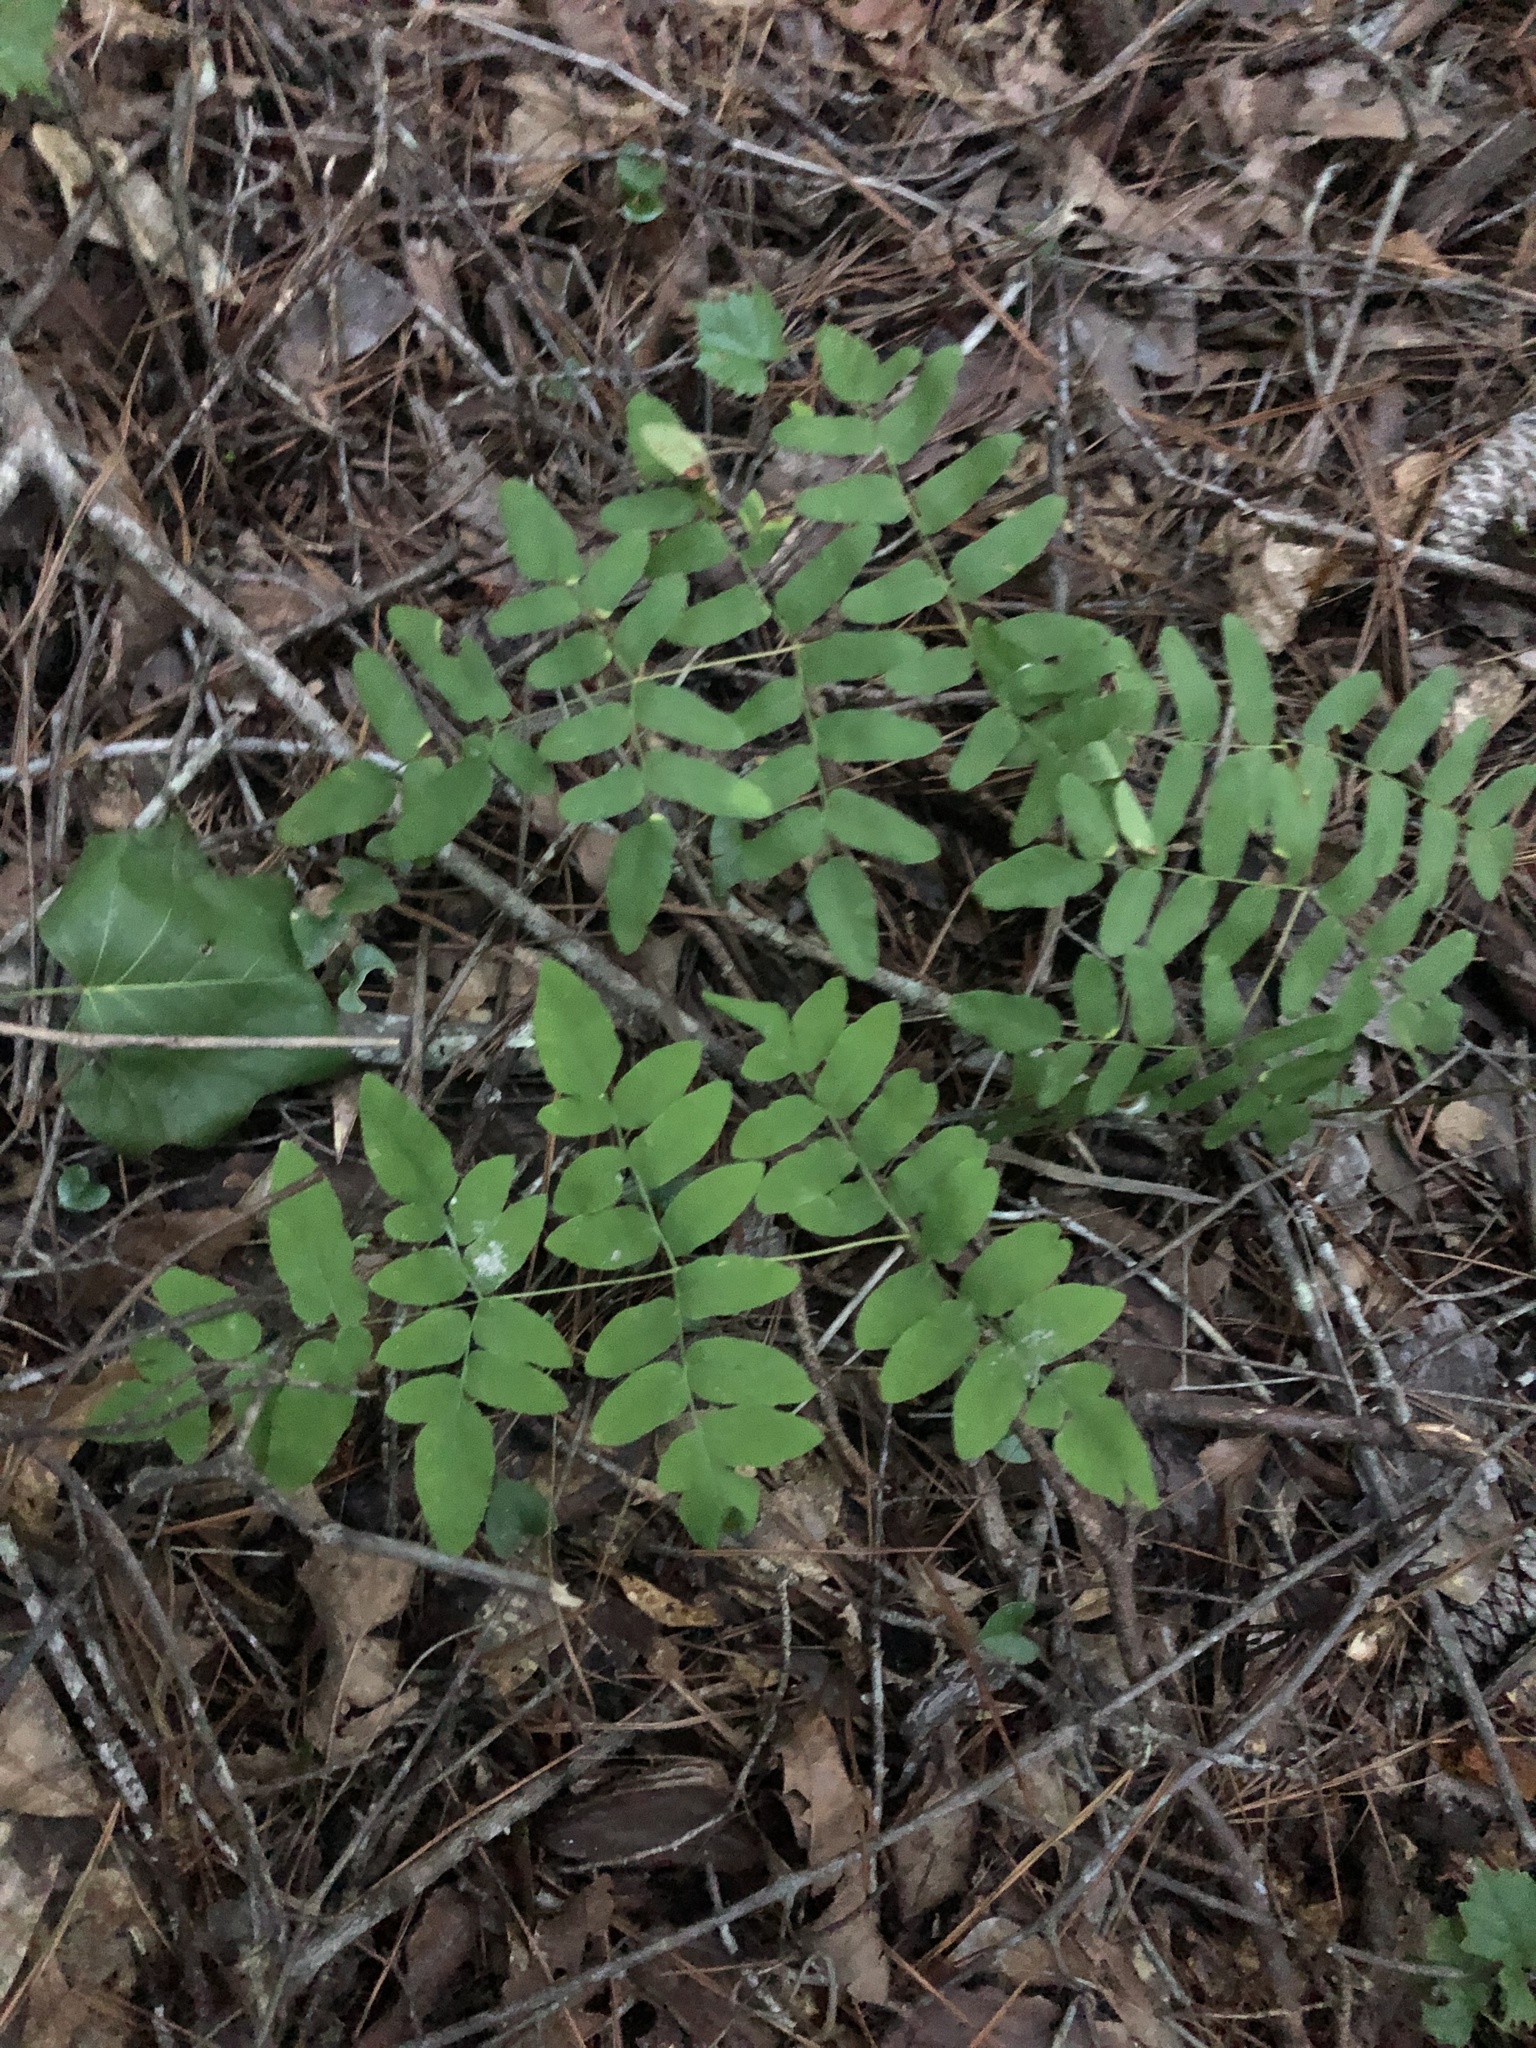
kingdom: Plantae
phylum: Tracheophyta
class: Polypodiopsida
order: Osmundales
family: Osmundaceae
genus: Osmunda
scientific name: Osmunda spectabilis
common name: American royal fern
